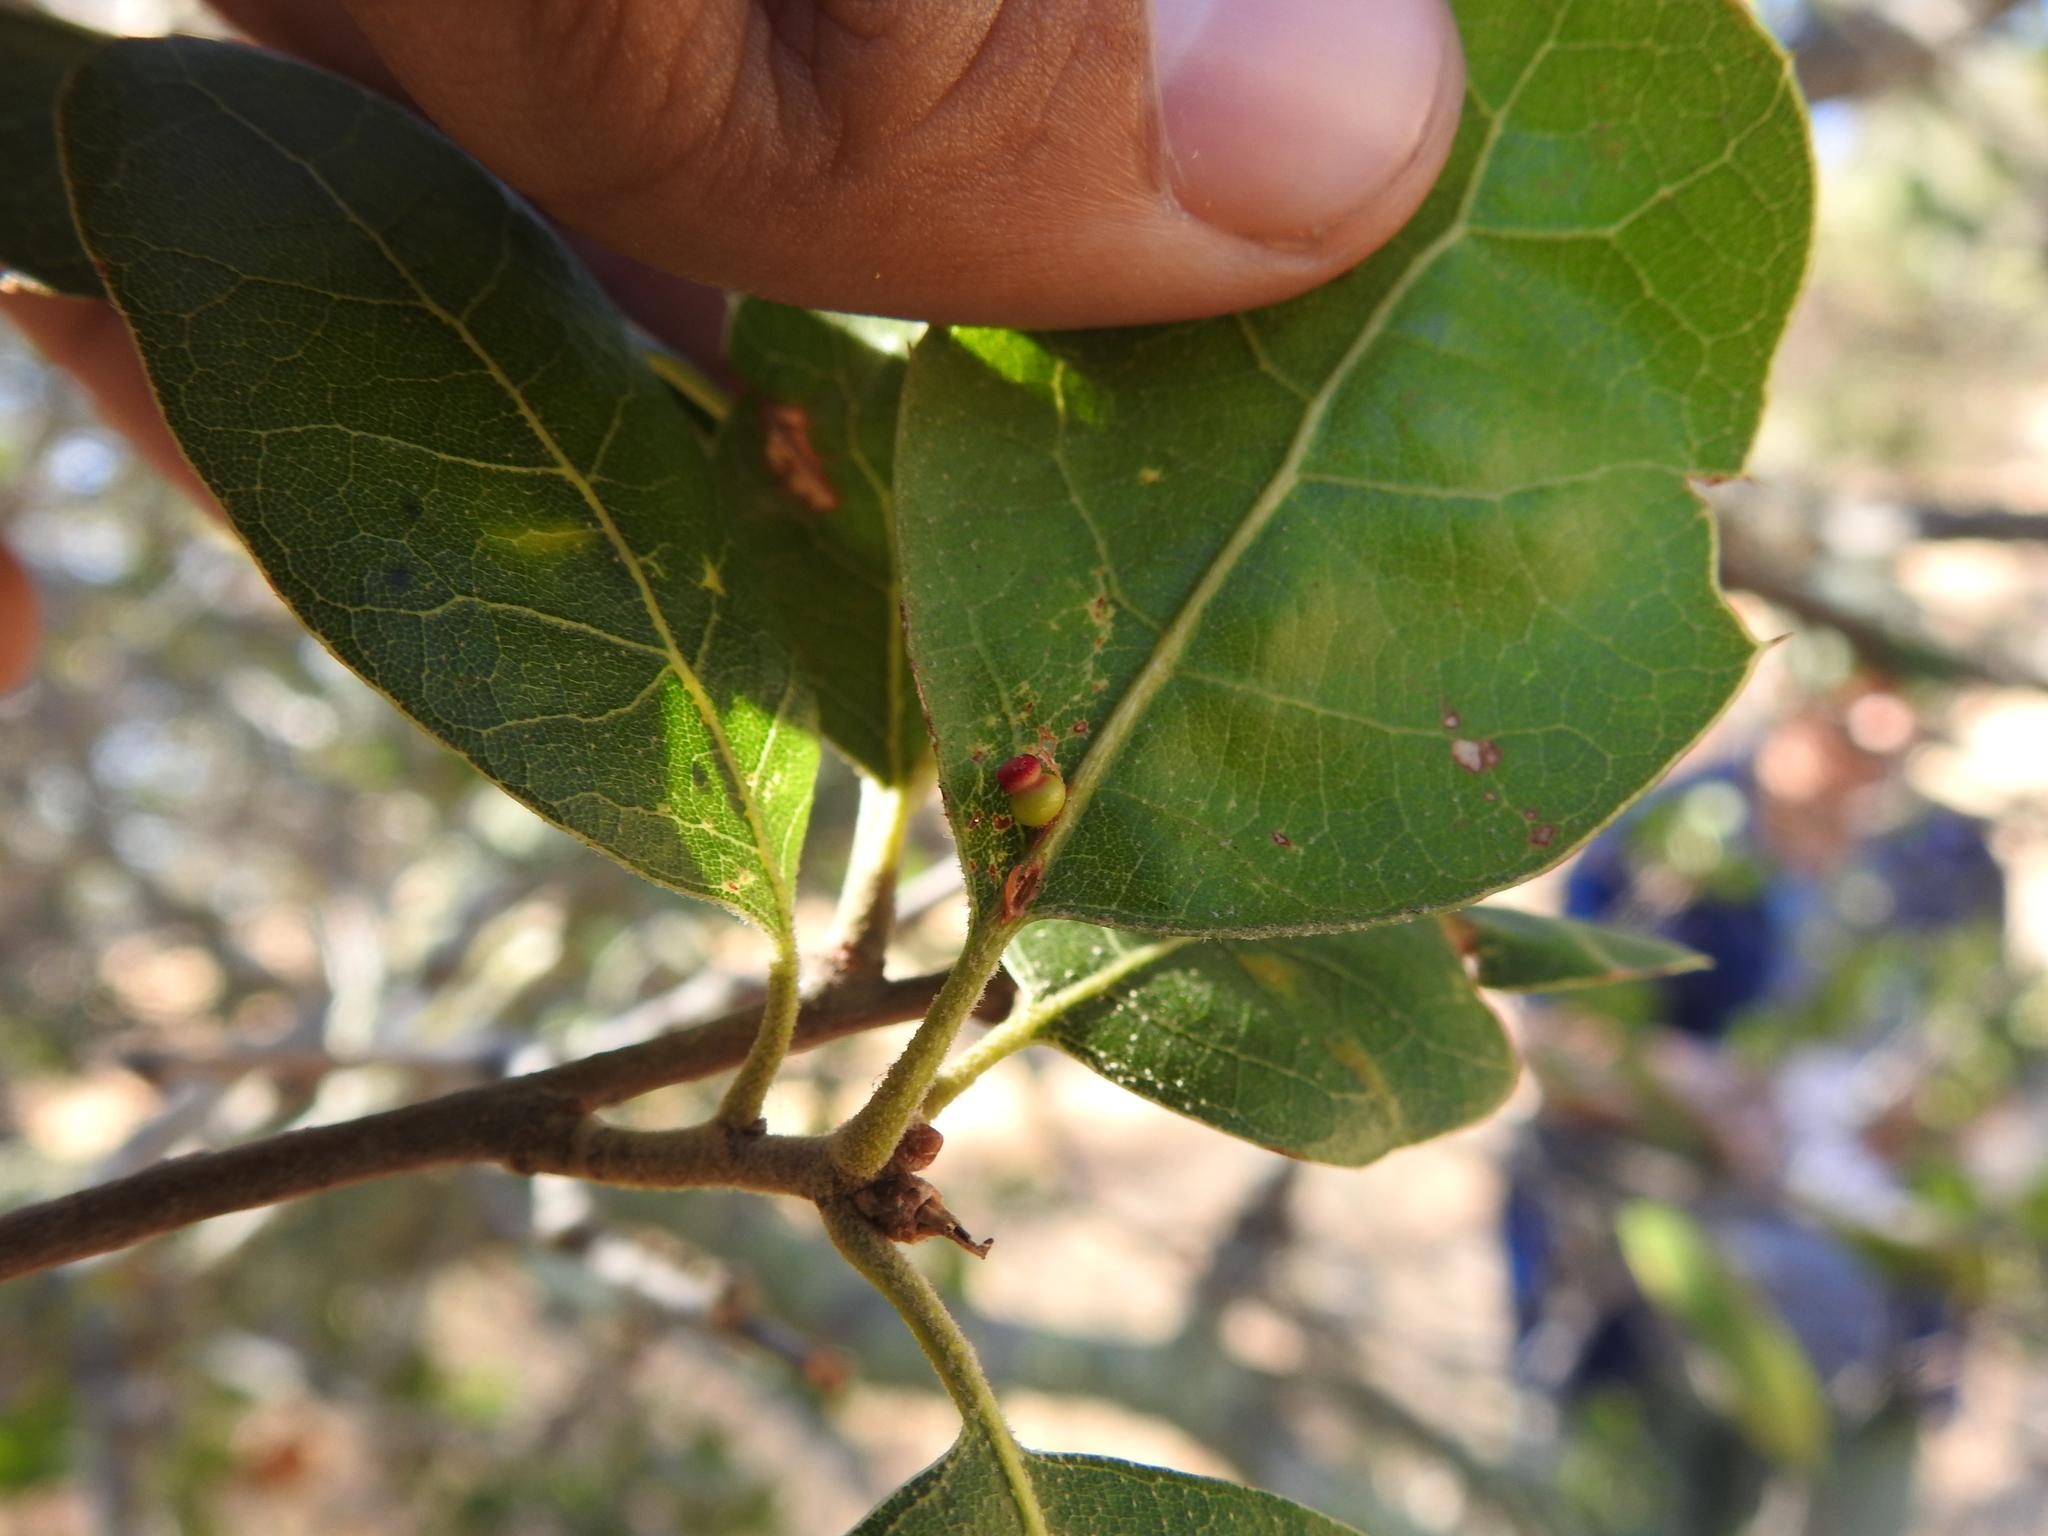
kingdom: Animalia
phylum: Arthropoda
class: Insecta
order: Hymenoptera
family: Cynipidae
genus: Callirhytis
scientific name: Callirhytis
